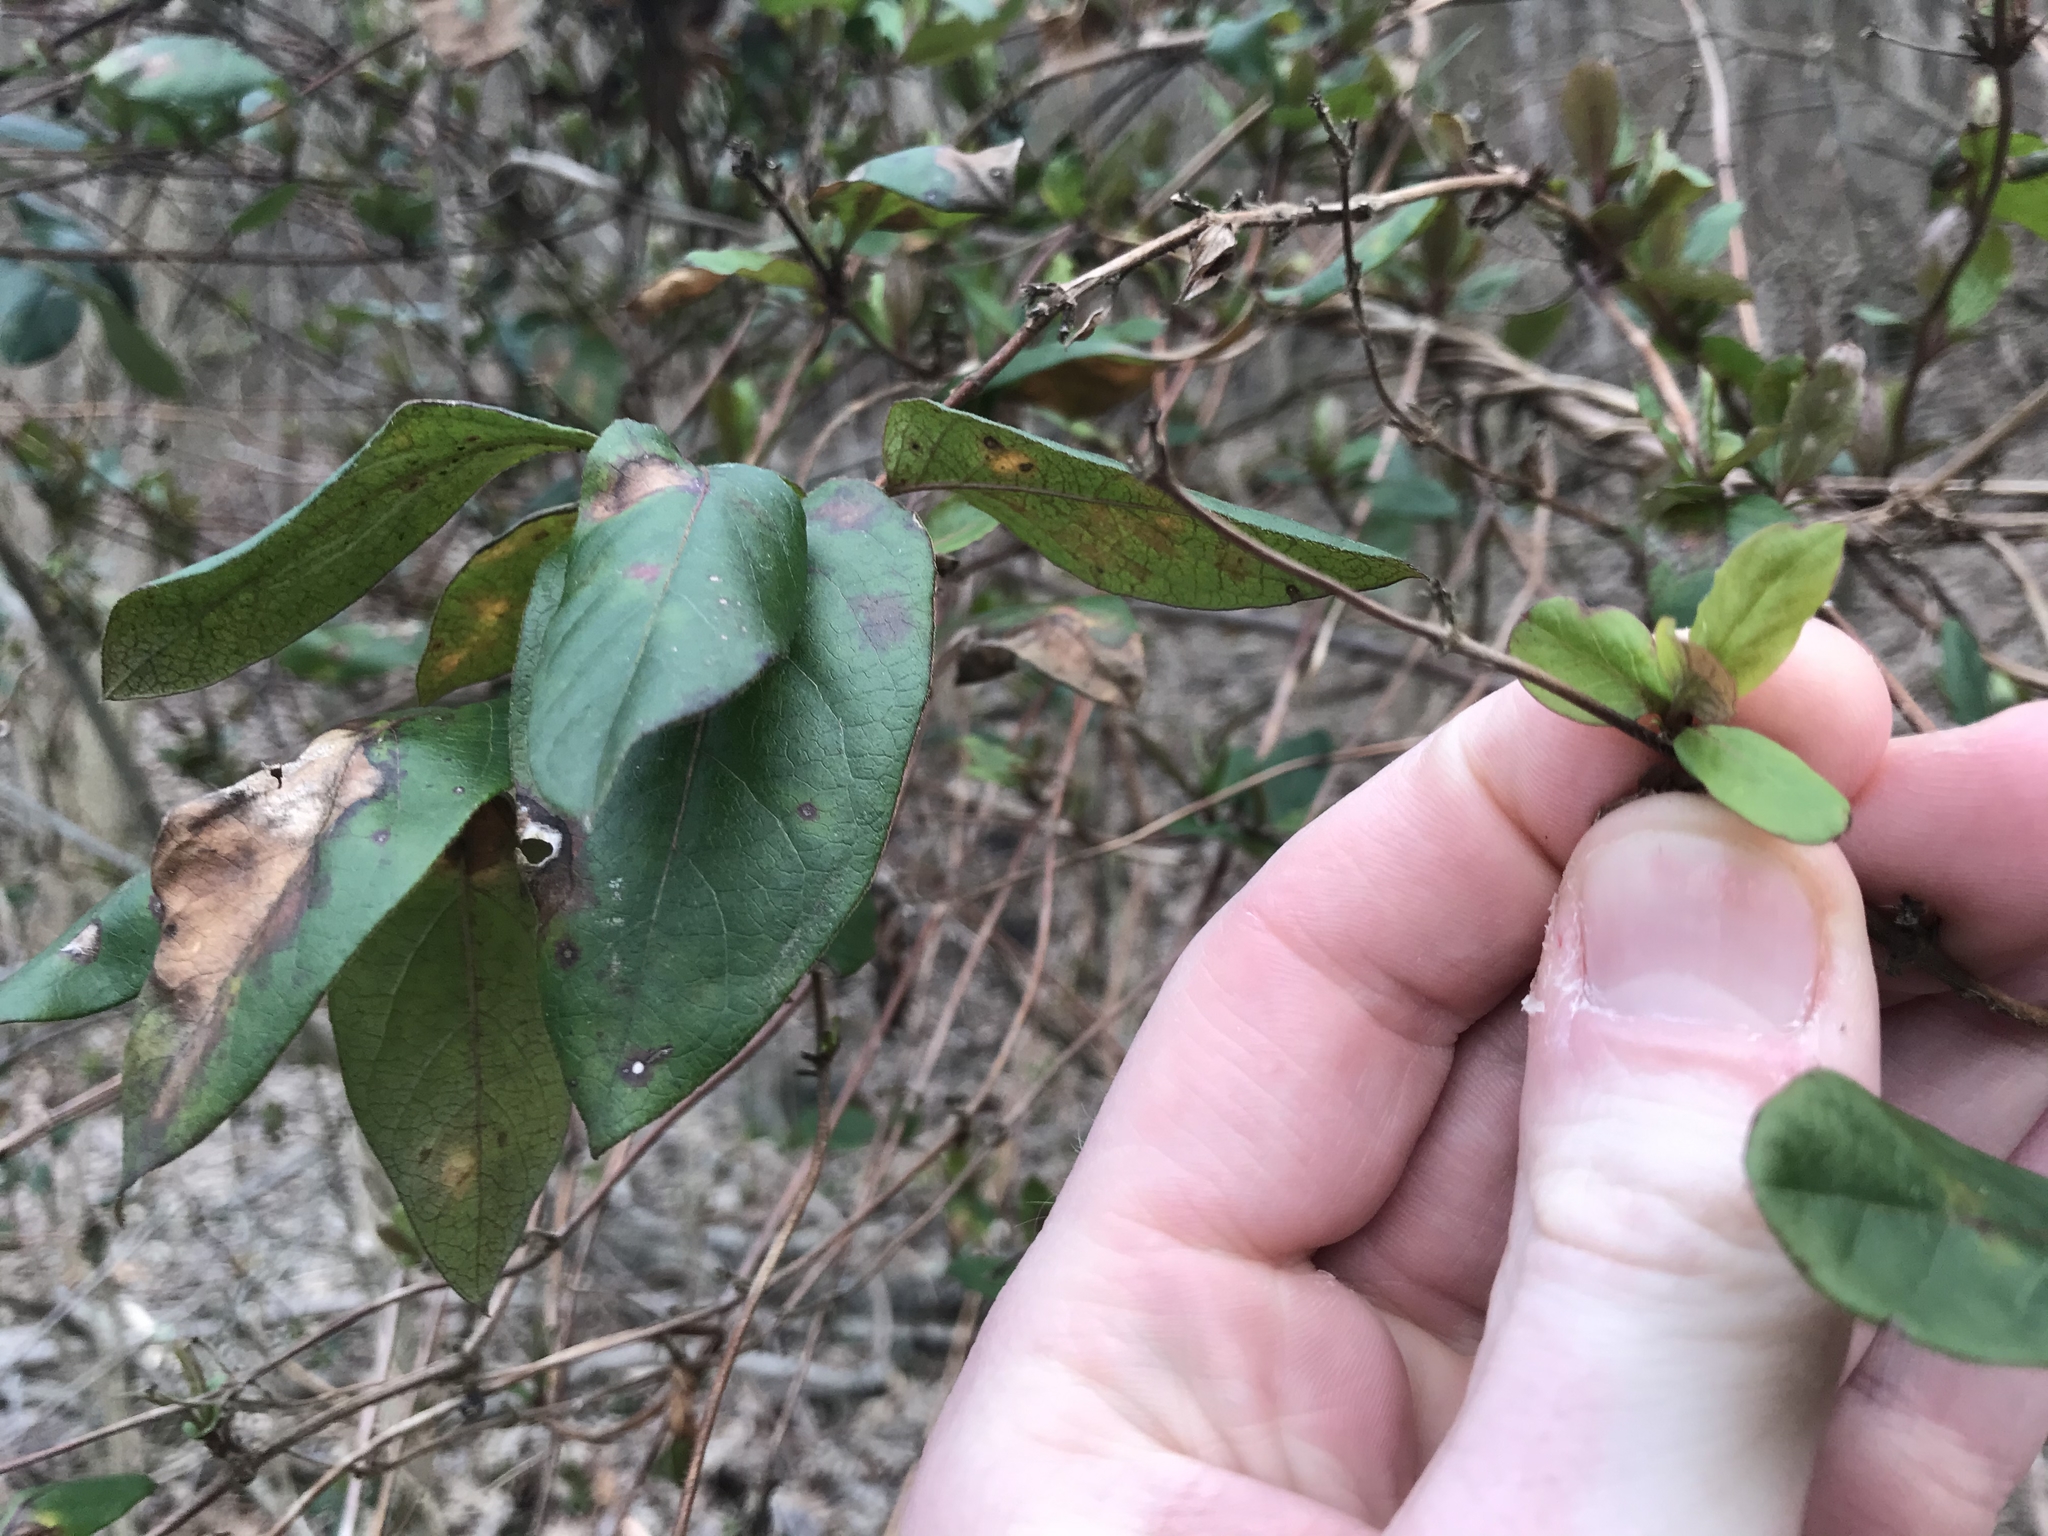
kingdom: Plantae
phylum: Tracheophyta
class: Magnoliopsida
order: Dipsacales
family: Caprifoliaceae
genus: Lonicera
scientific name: Lonicera japonica
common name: Japanese honeysuckle
